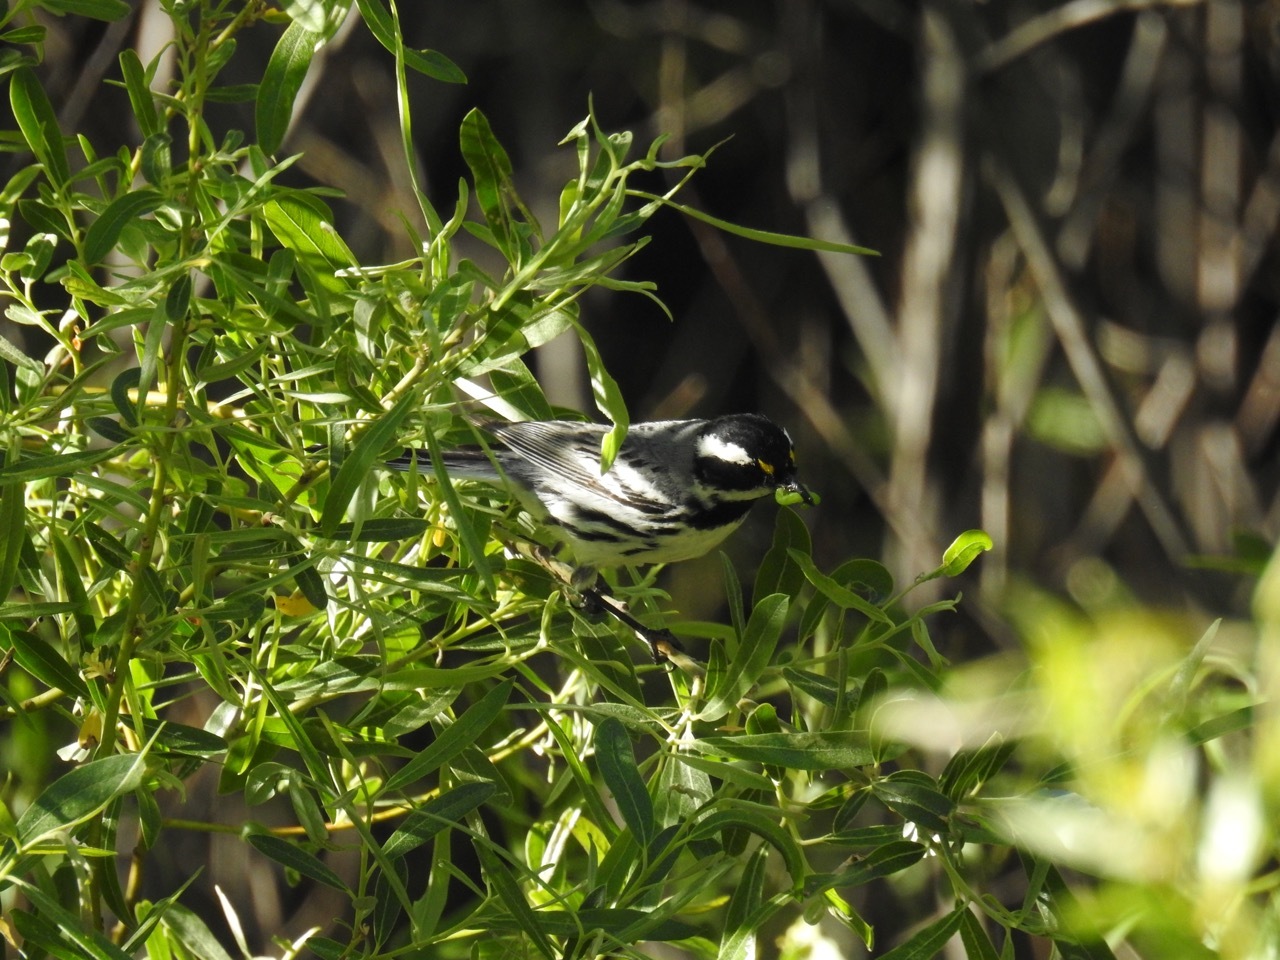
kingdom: Animalia
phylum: Chordata
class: Aves
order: Passeriformes
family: Parulidae
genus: Setophaga
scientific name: Setophaga nigrescens
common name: Black-throated gray warbler
